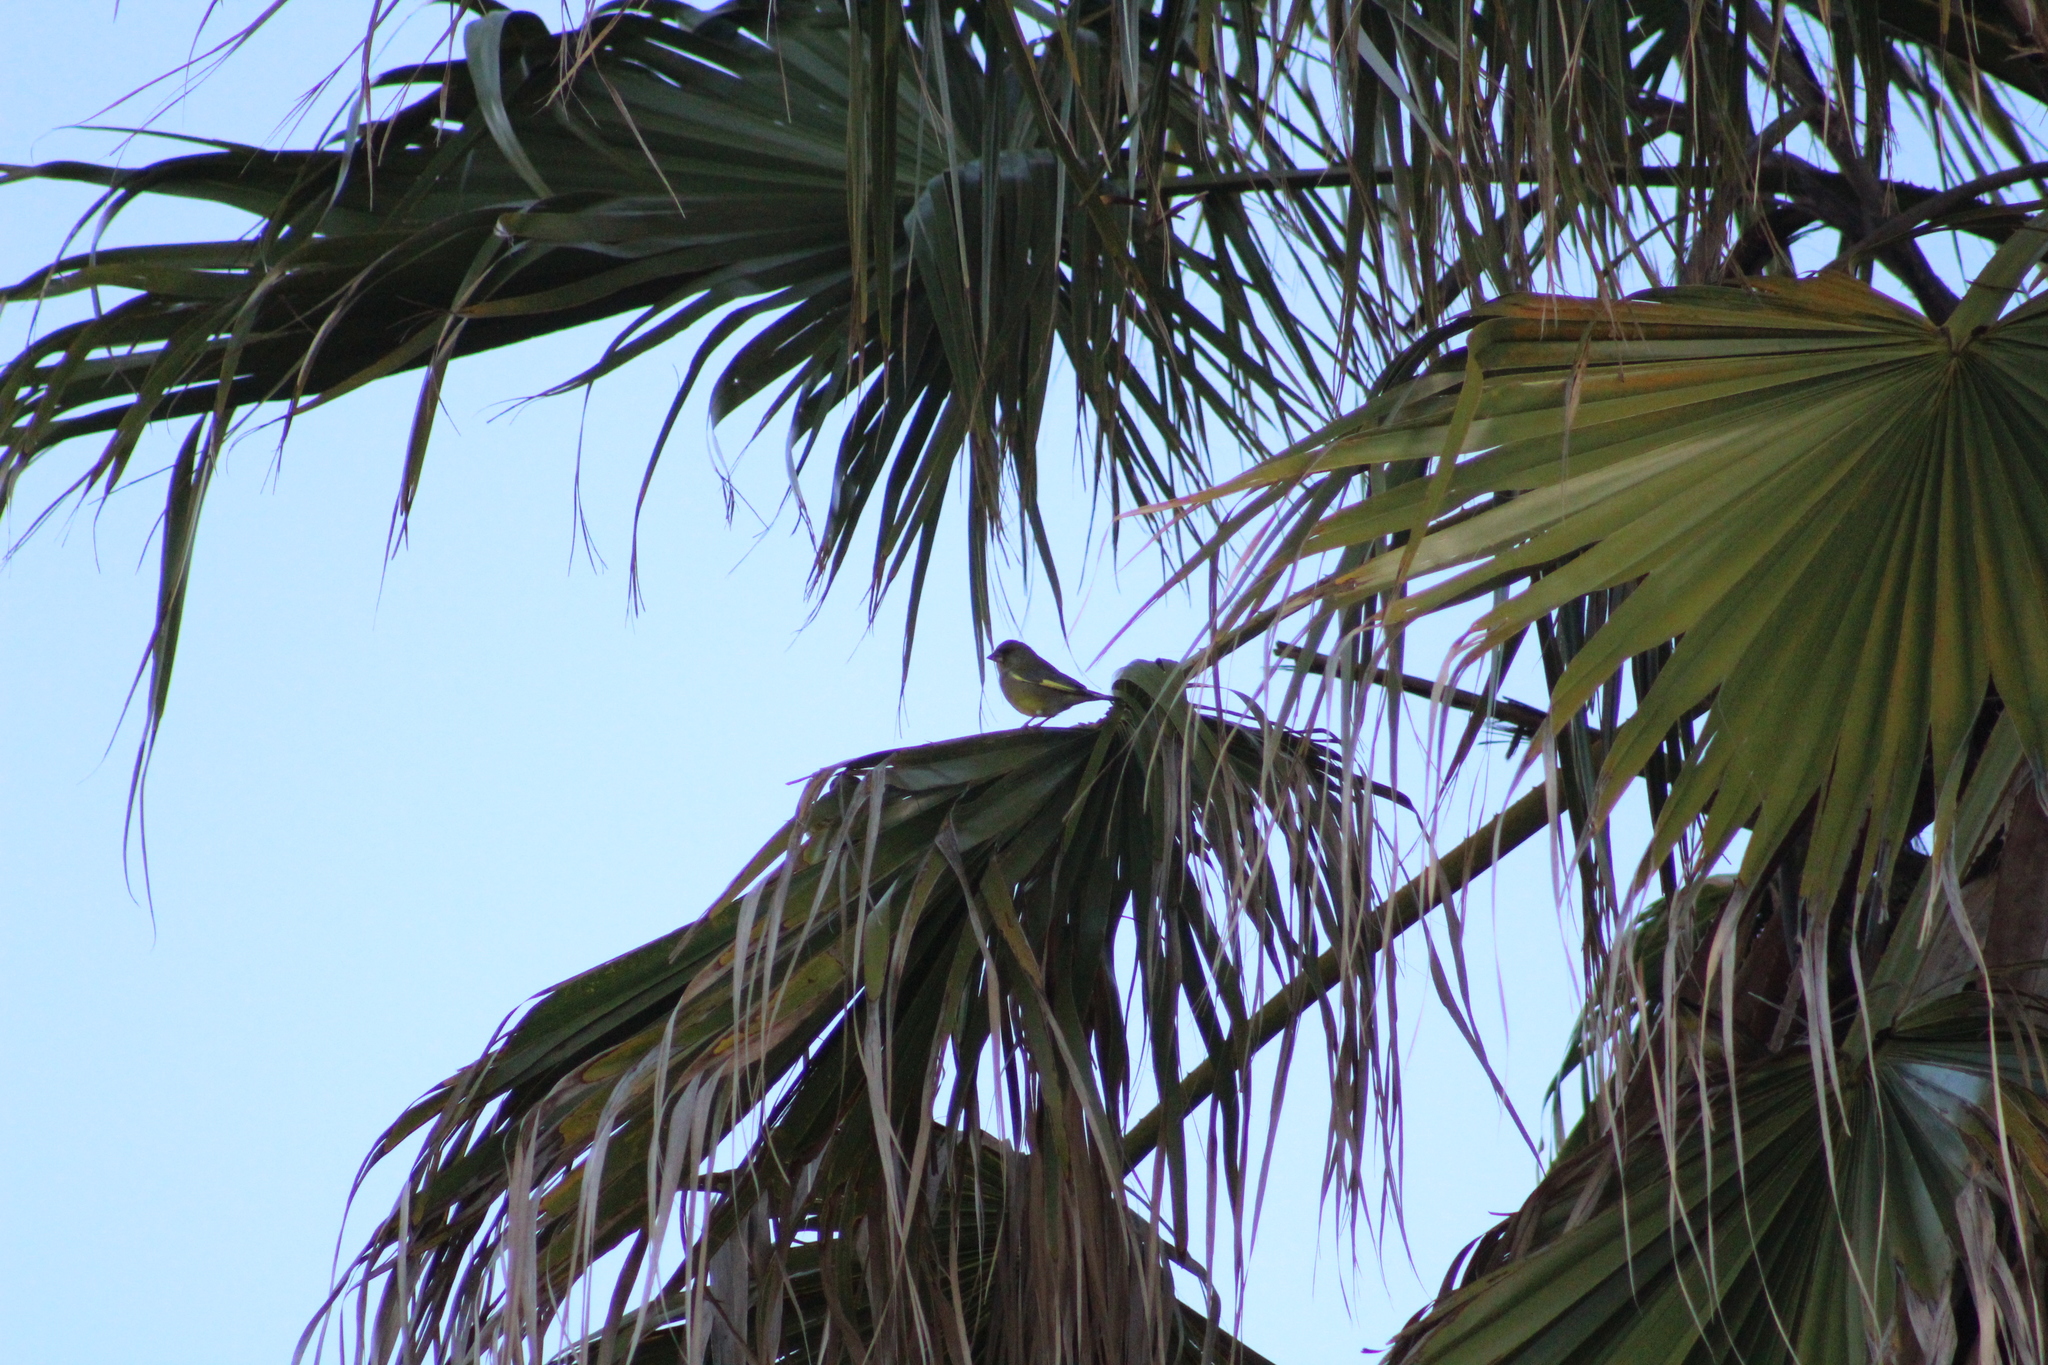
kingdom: Plantae
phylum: Tracheophyta
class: Liliopsida
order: Poales
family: Poaceae
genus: Chloris
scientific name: Chloris chloris
